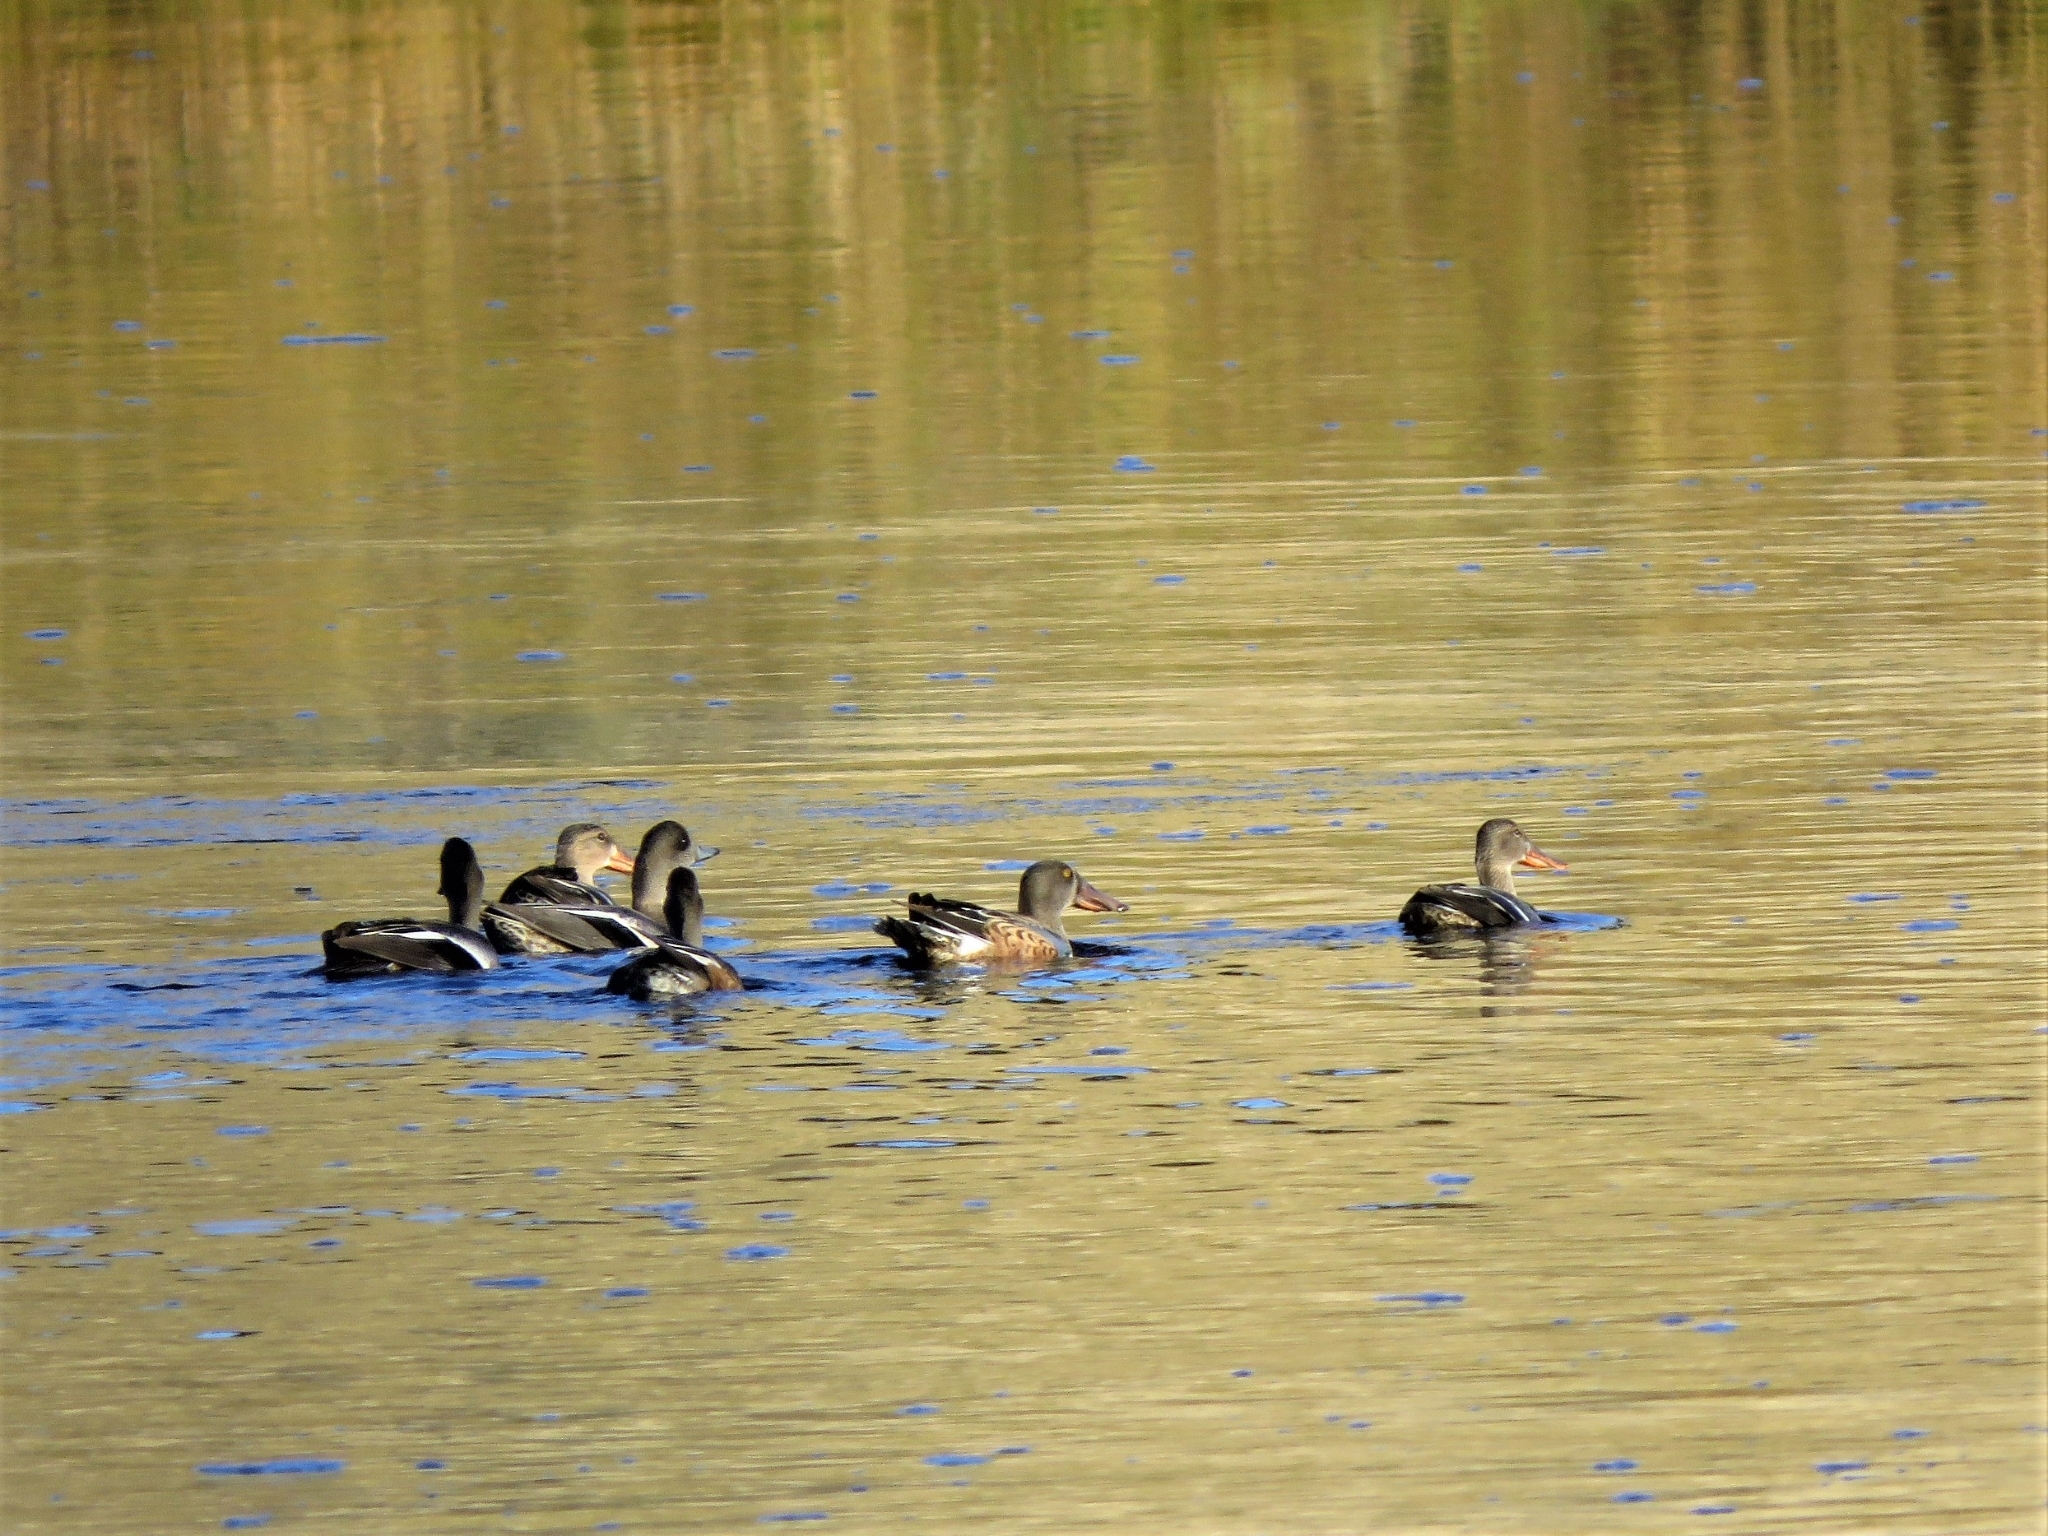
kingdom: Animalia
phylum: Chordata
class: Aves
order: Anseriformes
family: Anatidae
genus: Spatula
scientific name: Spatula clypeata
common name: Northern shoveler
